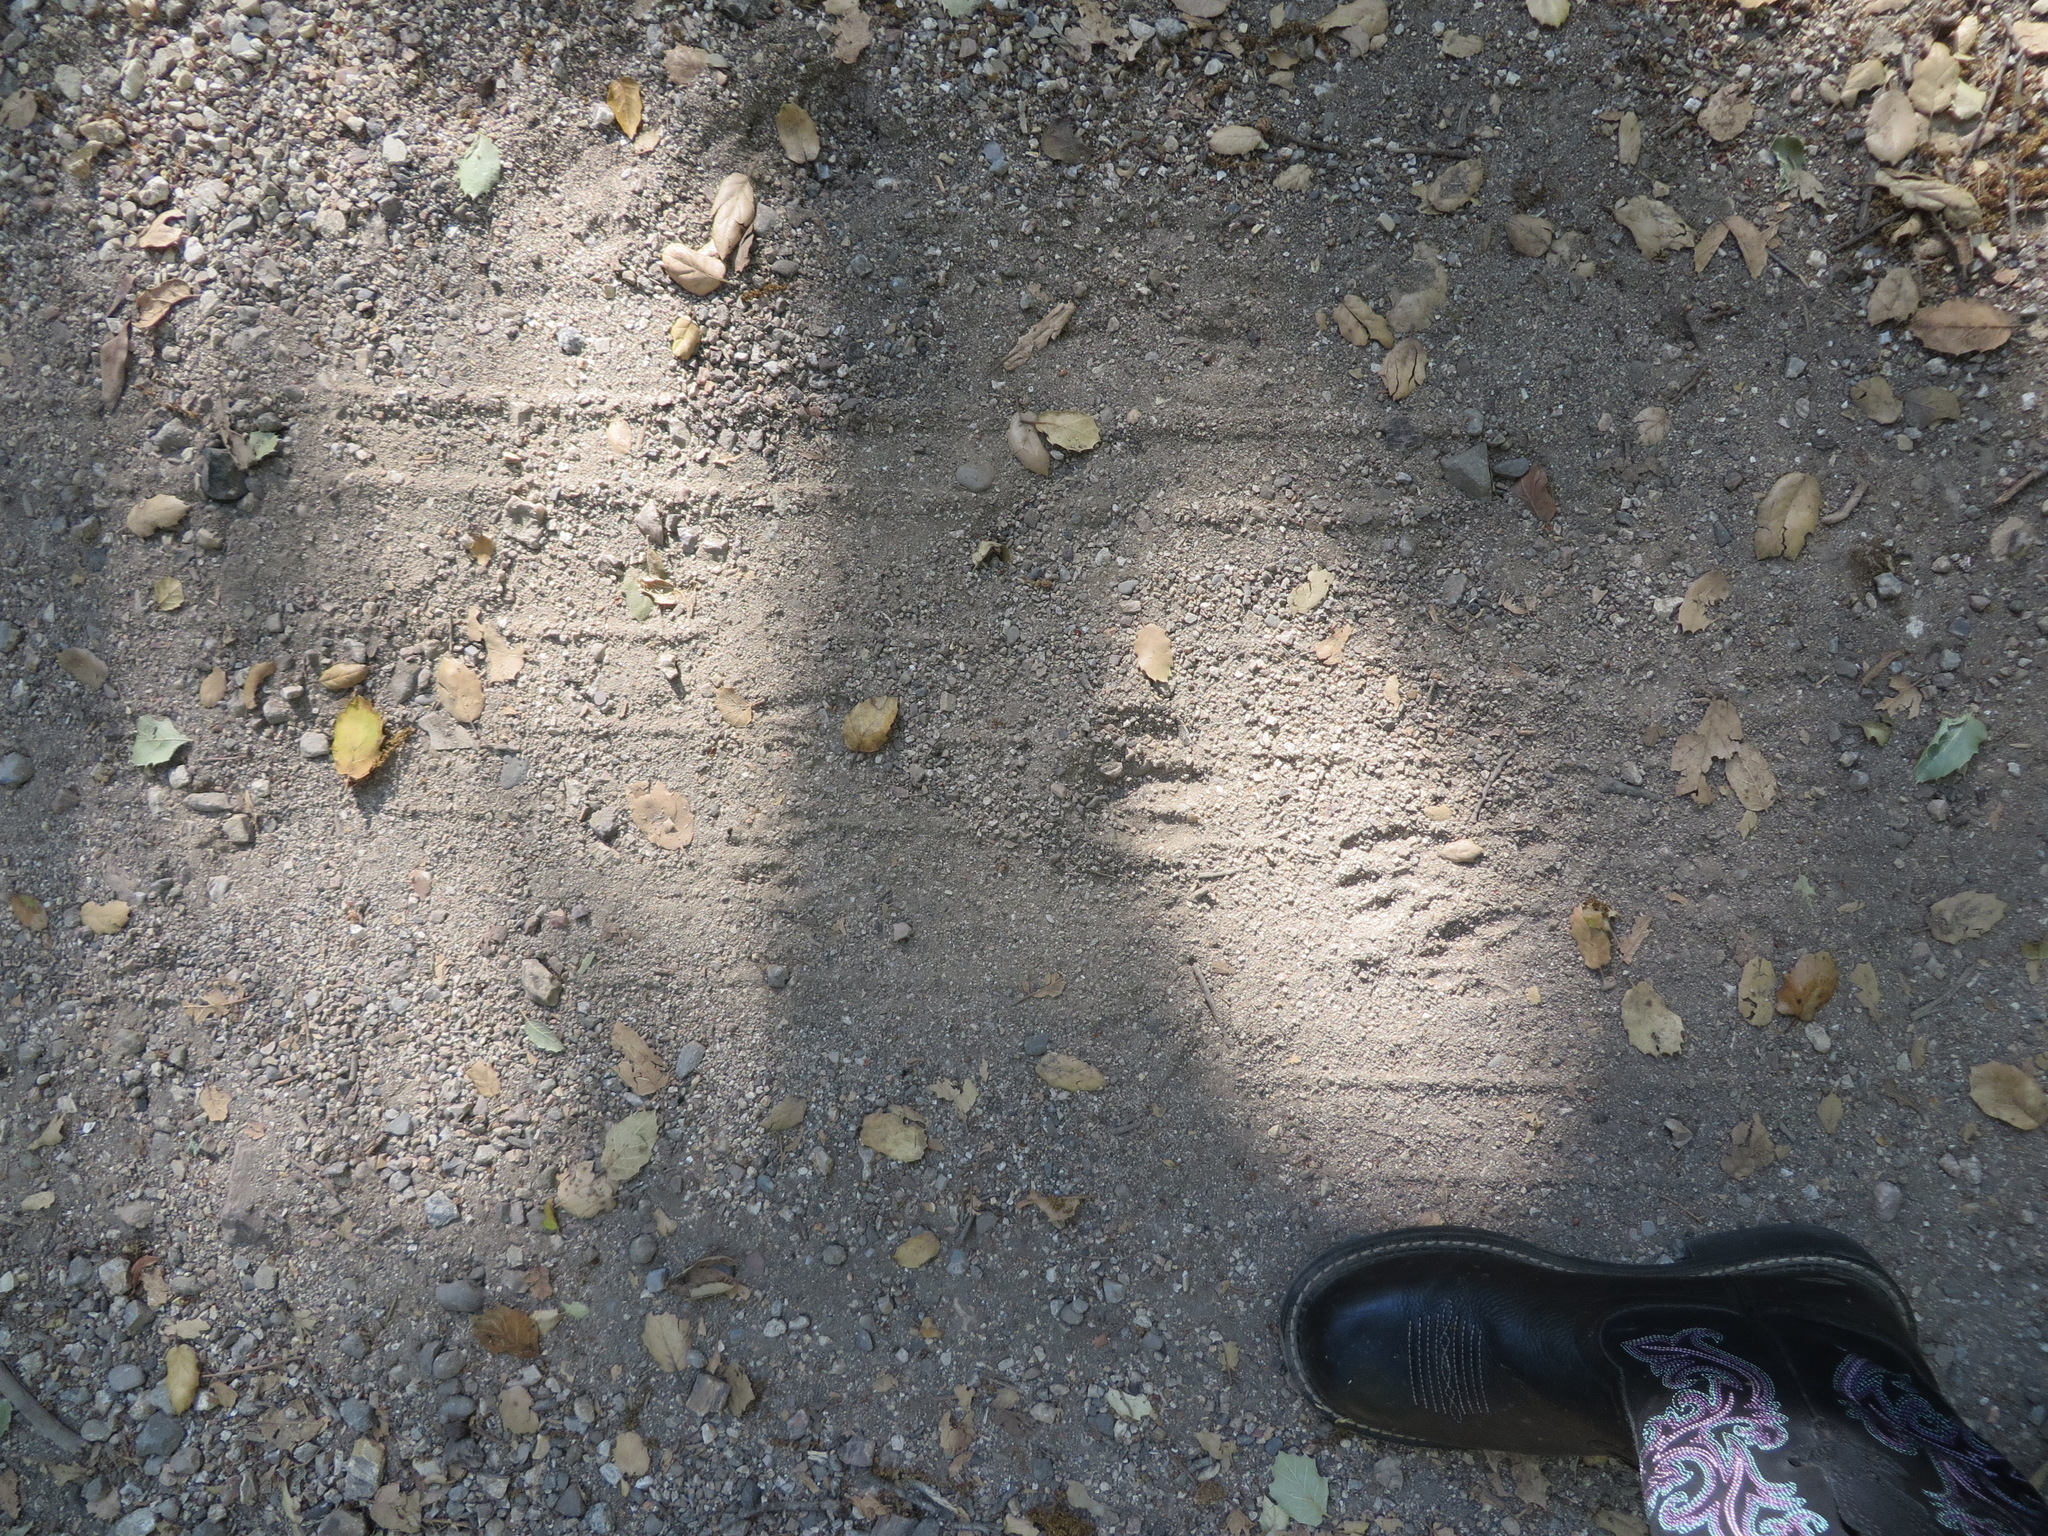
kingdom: Animalia
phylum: Chordata
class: Mammalia
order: Artiodactyla
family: Cervidae
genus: Odocoileus
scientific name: Odocoileus hemionus
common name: Mule deer
